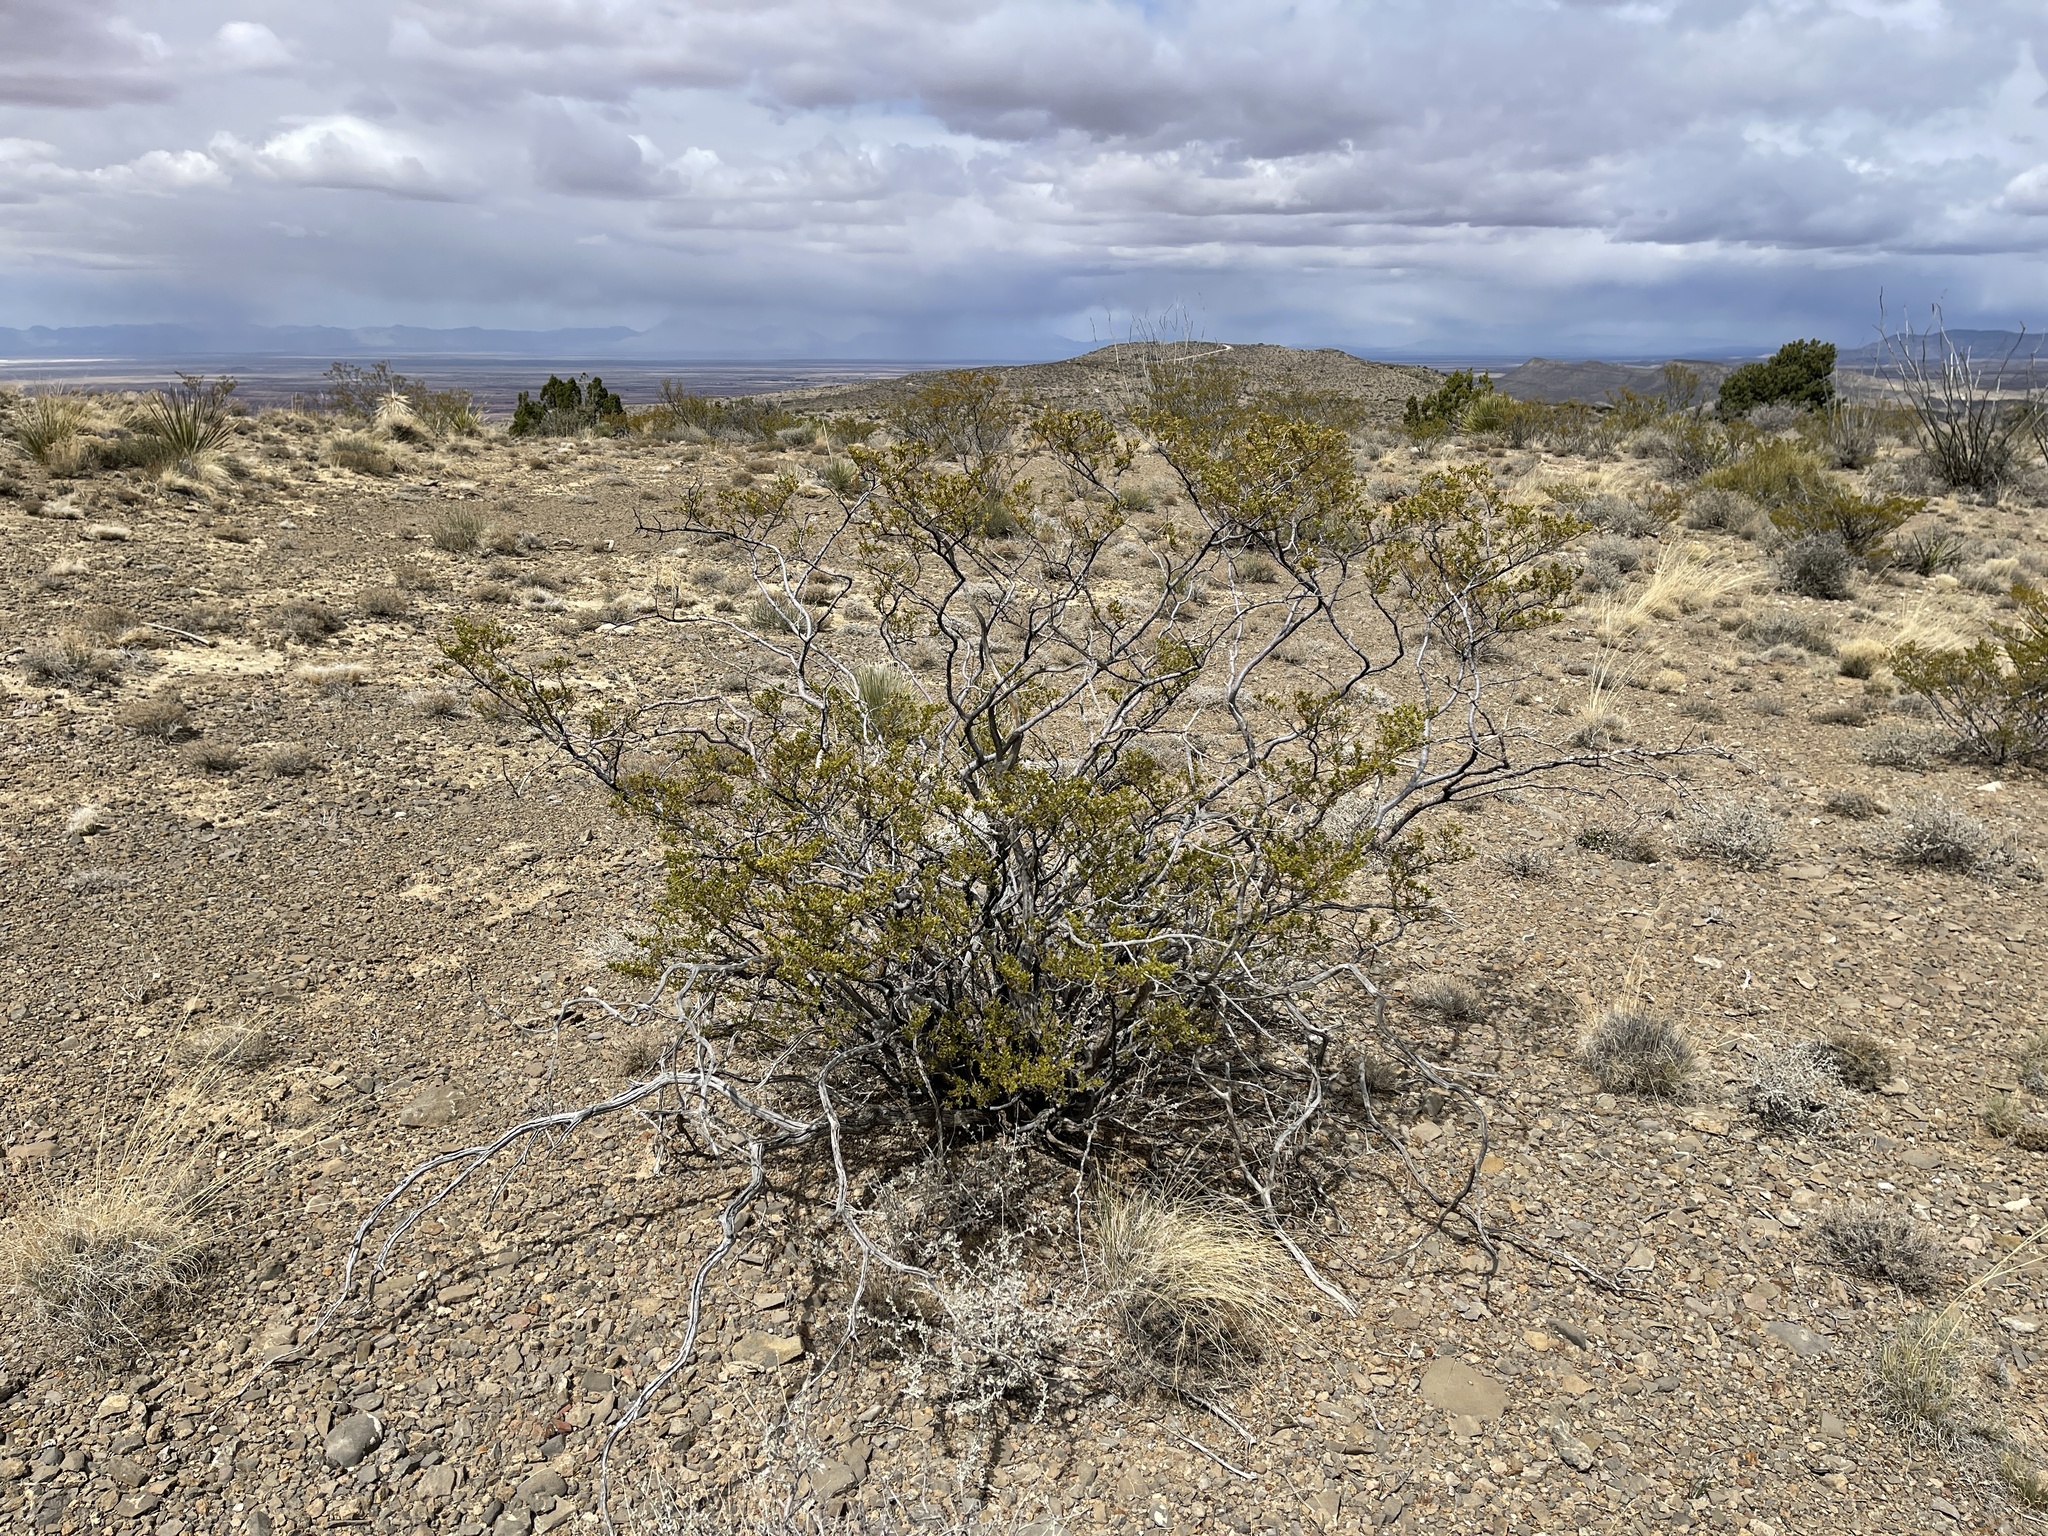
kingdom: Plantae
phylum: Tracheophyta
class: Magnoliopsida
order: Zygophyllales
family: Zygophyllaceae
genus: Larrea
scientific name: Larrea tridentata
